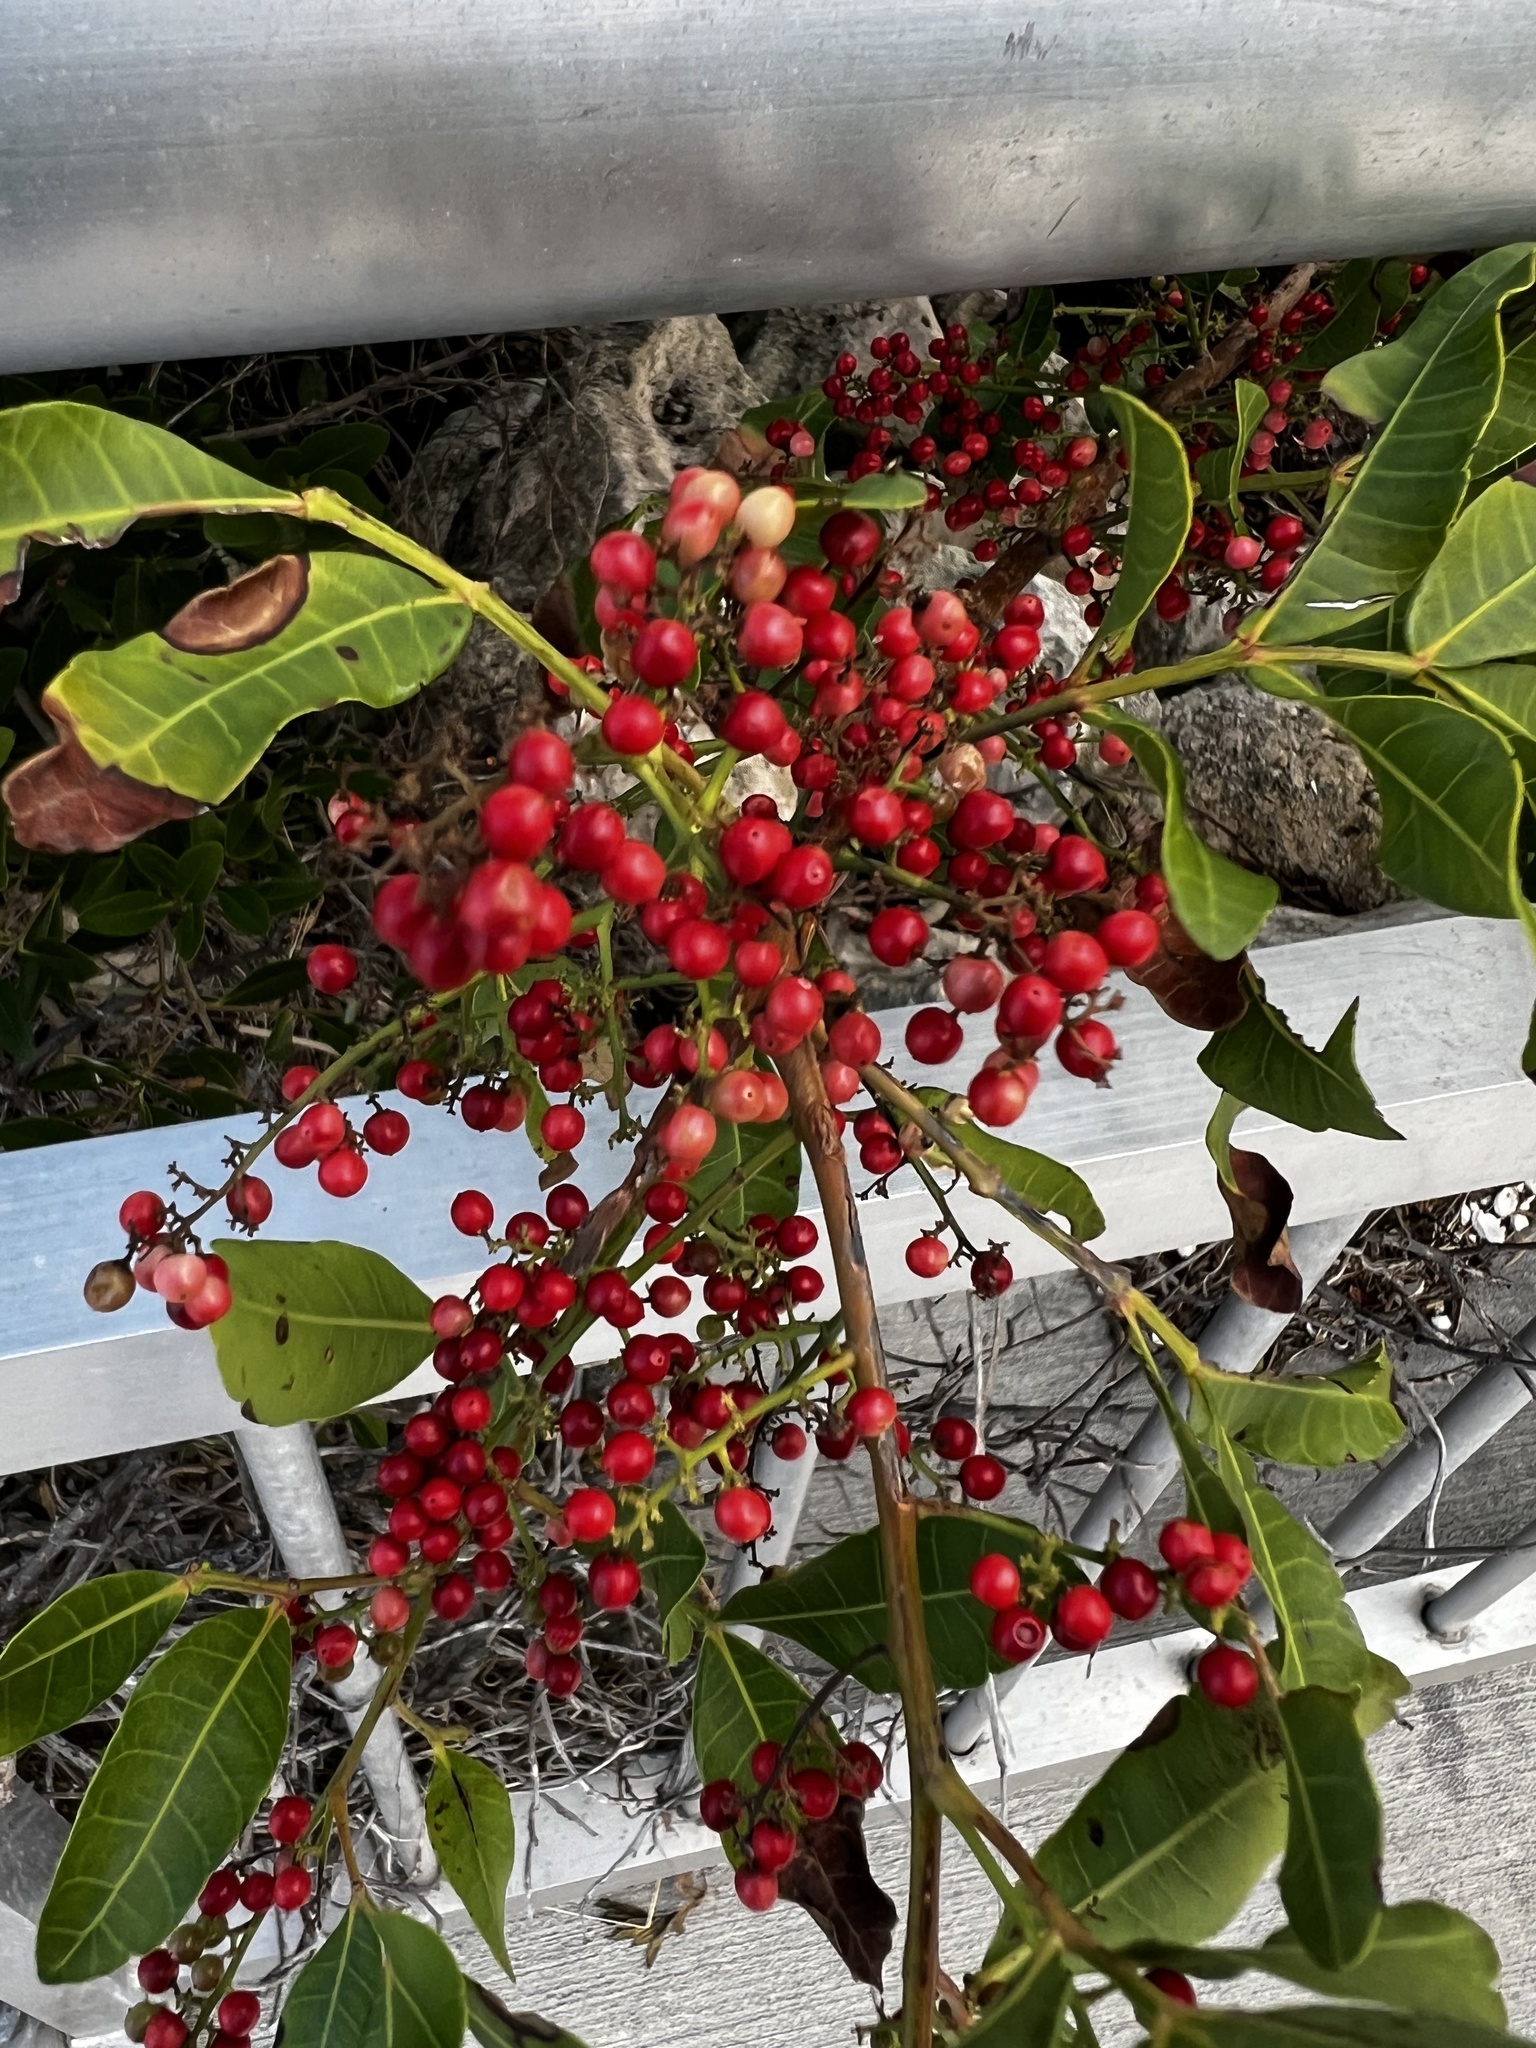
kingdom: Plantae
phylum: Tracheophyta
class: Magnoliopsida
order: Sapindales
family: Anacardiaceae
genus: Schinus
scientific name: Schinus terebinthifolia
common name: Brazilian peppertree
